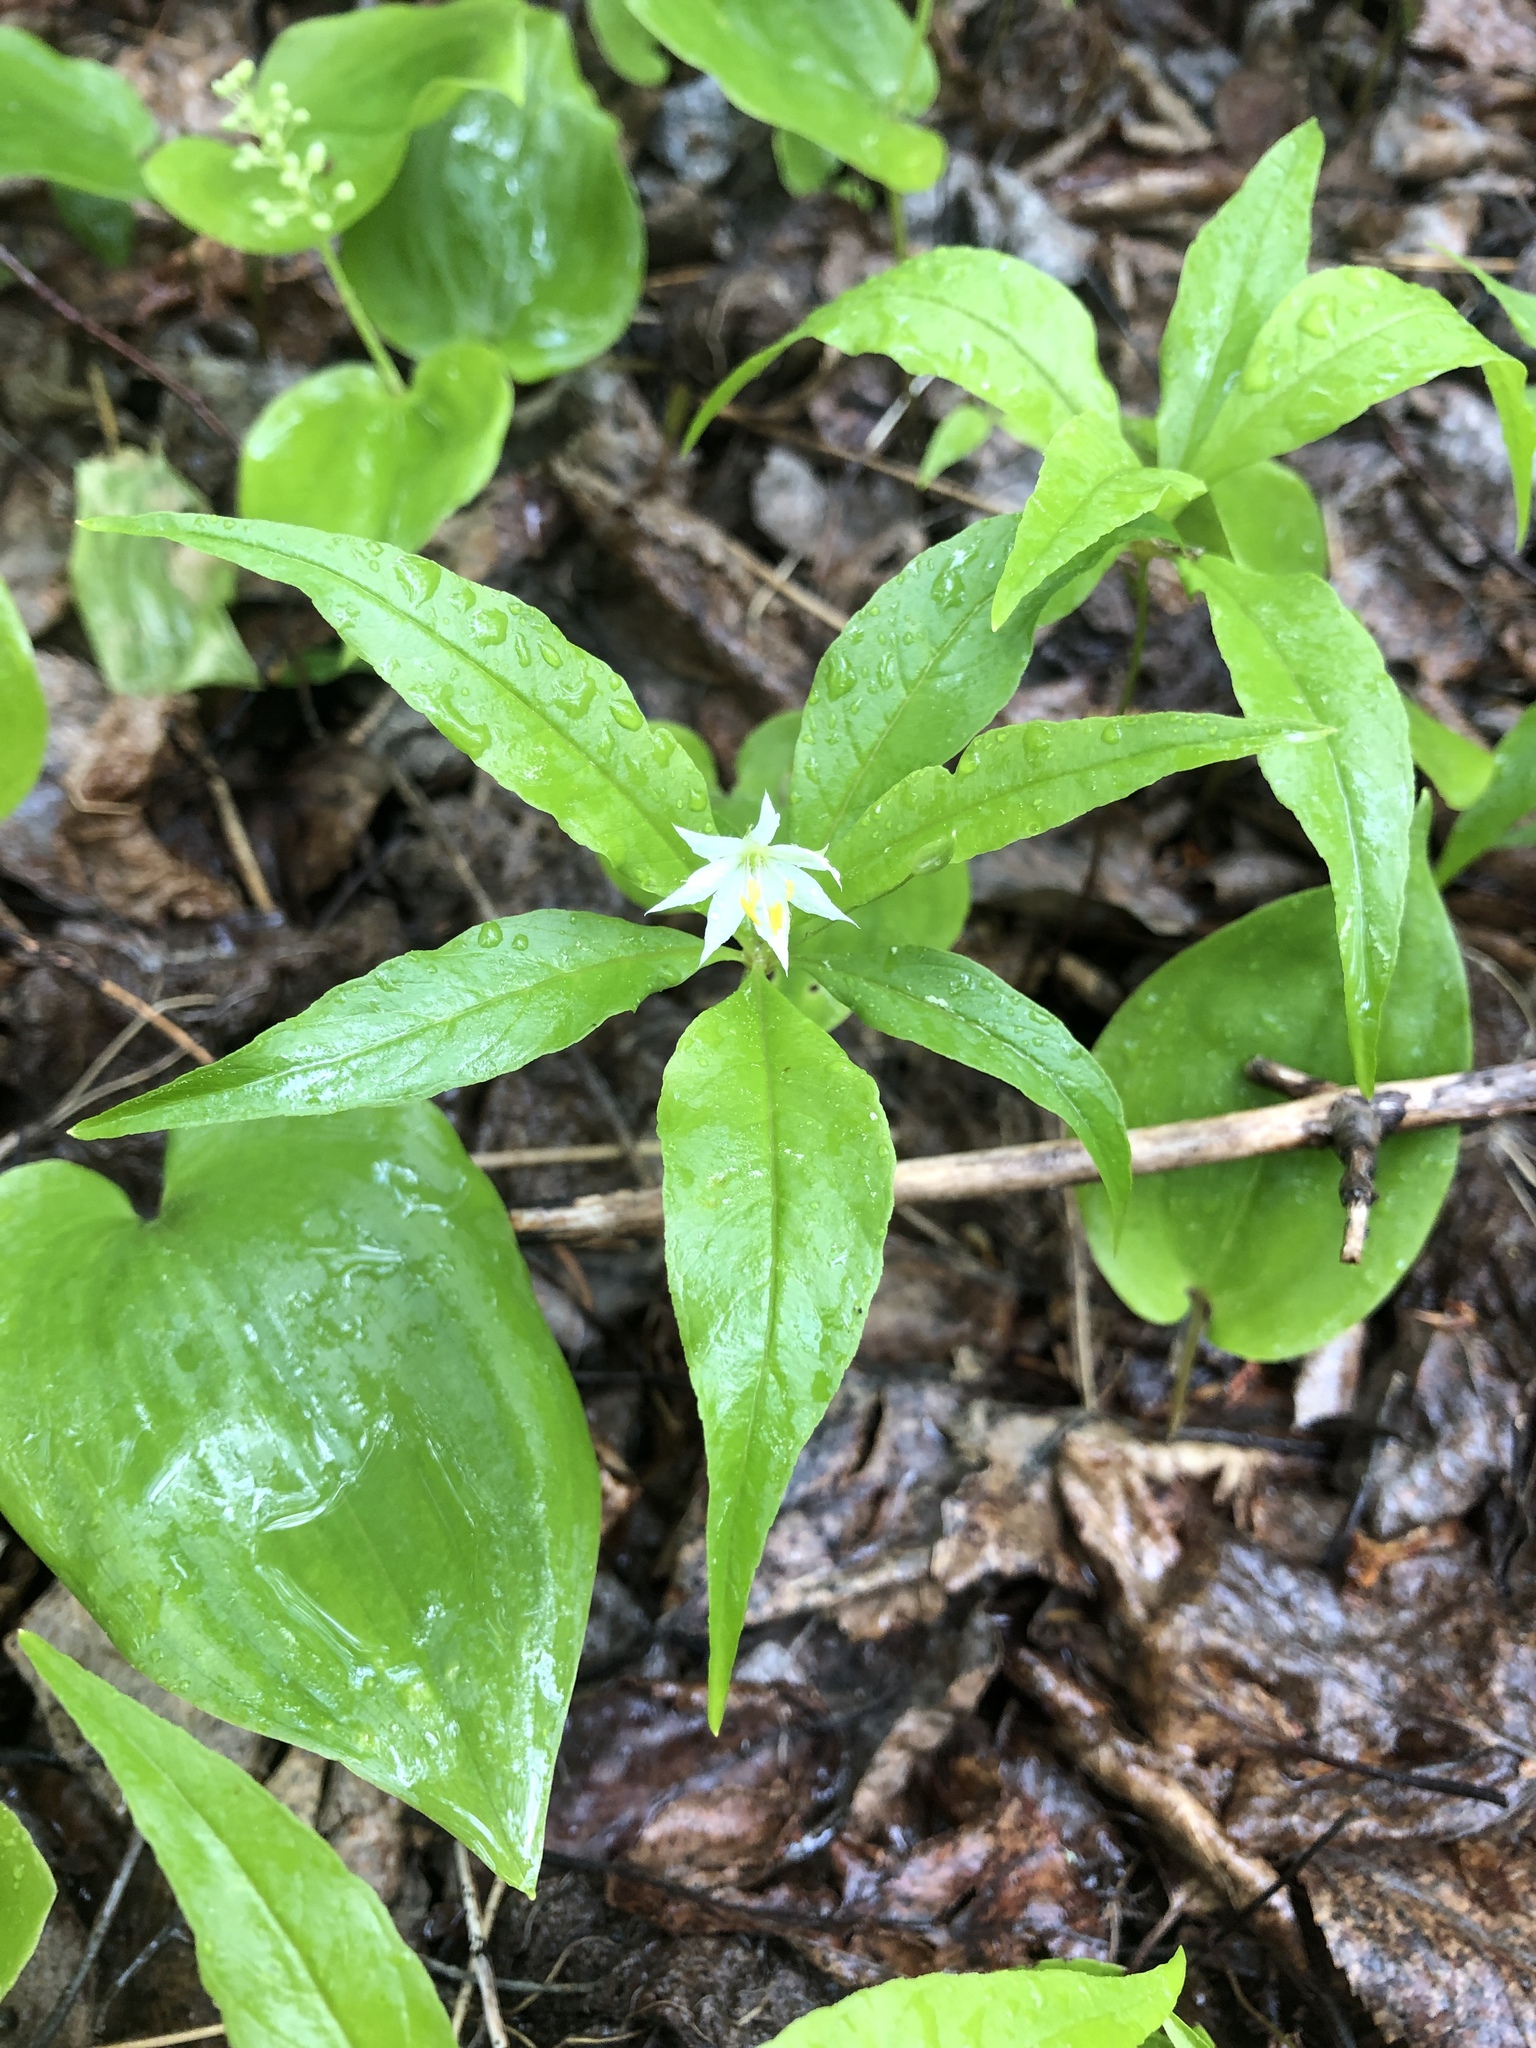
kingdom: Plantae
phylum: Tracheophyta
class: Magnoliopsida
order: Ericales
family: Primulaceae
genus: Lysimachia
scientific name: Lysimachia borealis
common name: American starflower
